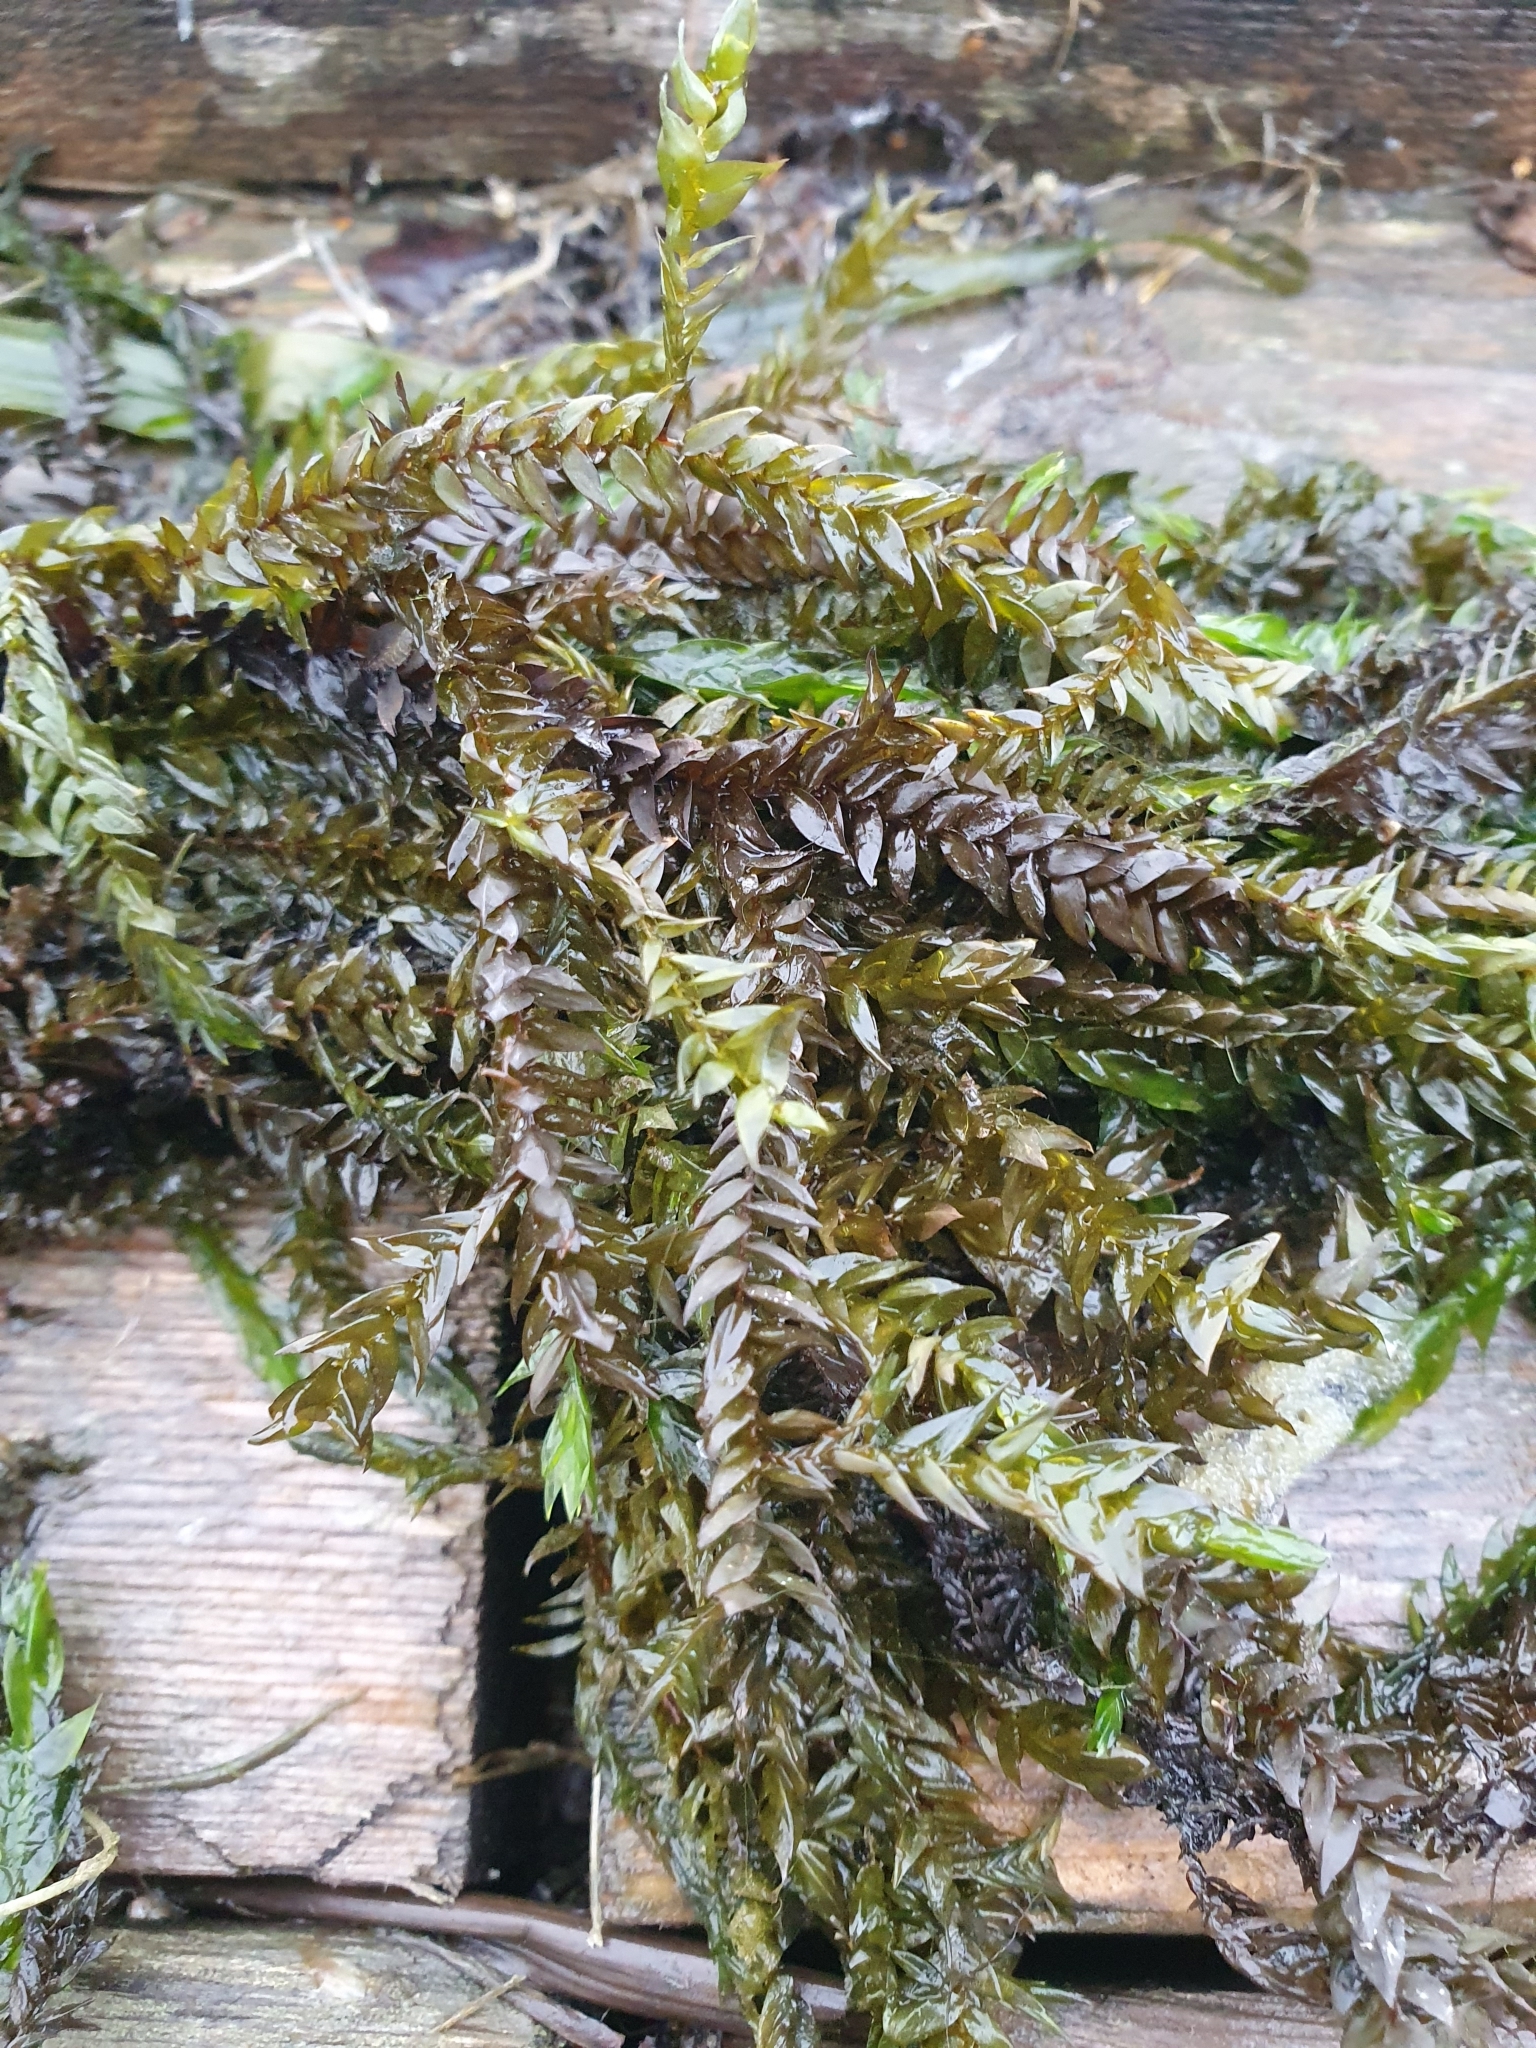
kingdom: Plantae
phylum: Bryophyta
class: Bryopsida
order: Hypnales
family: Fontinalaceae
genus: Fontinalis
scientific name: Fontinalis antipyretica
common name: Greater water-moss
